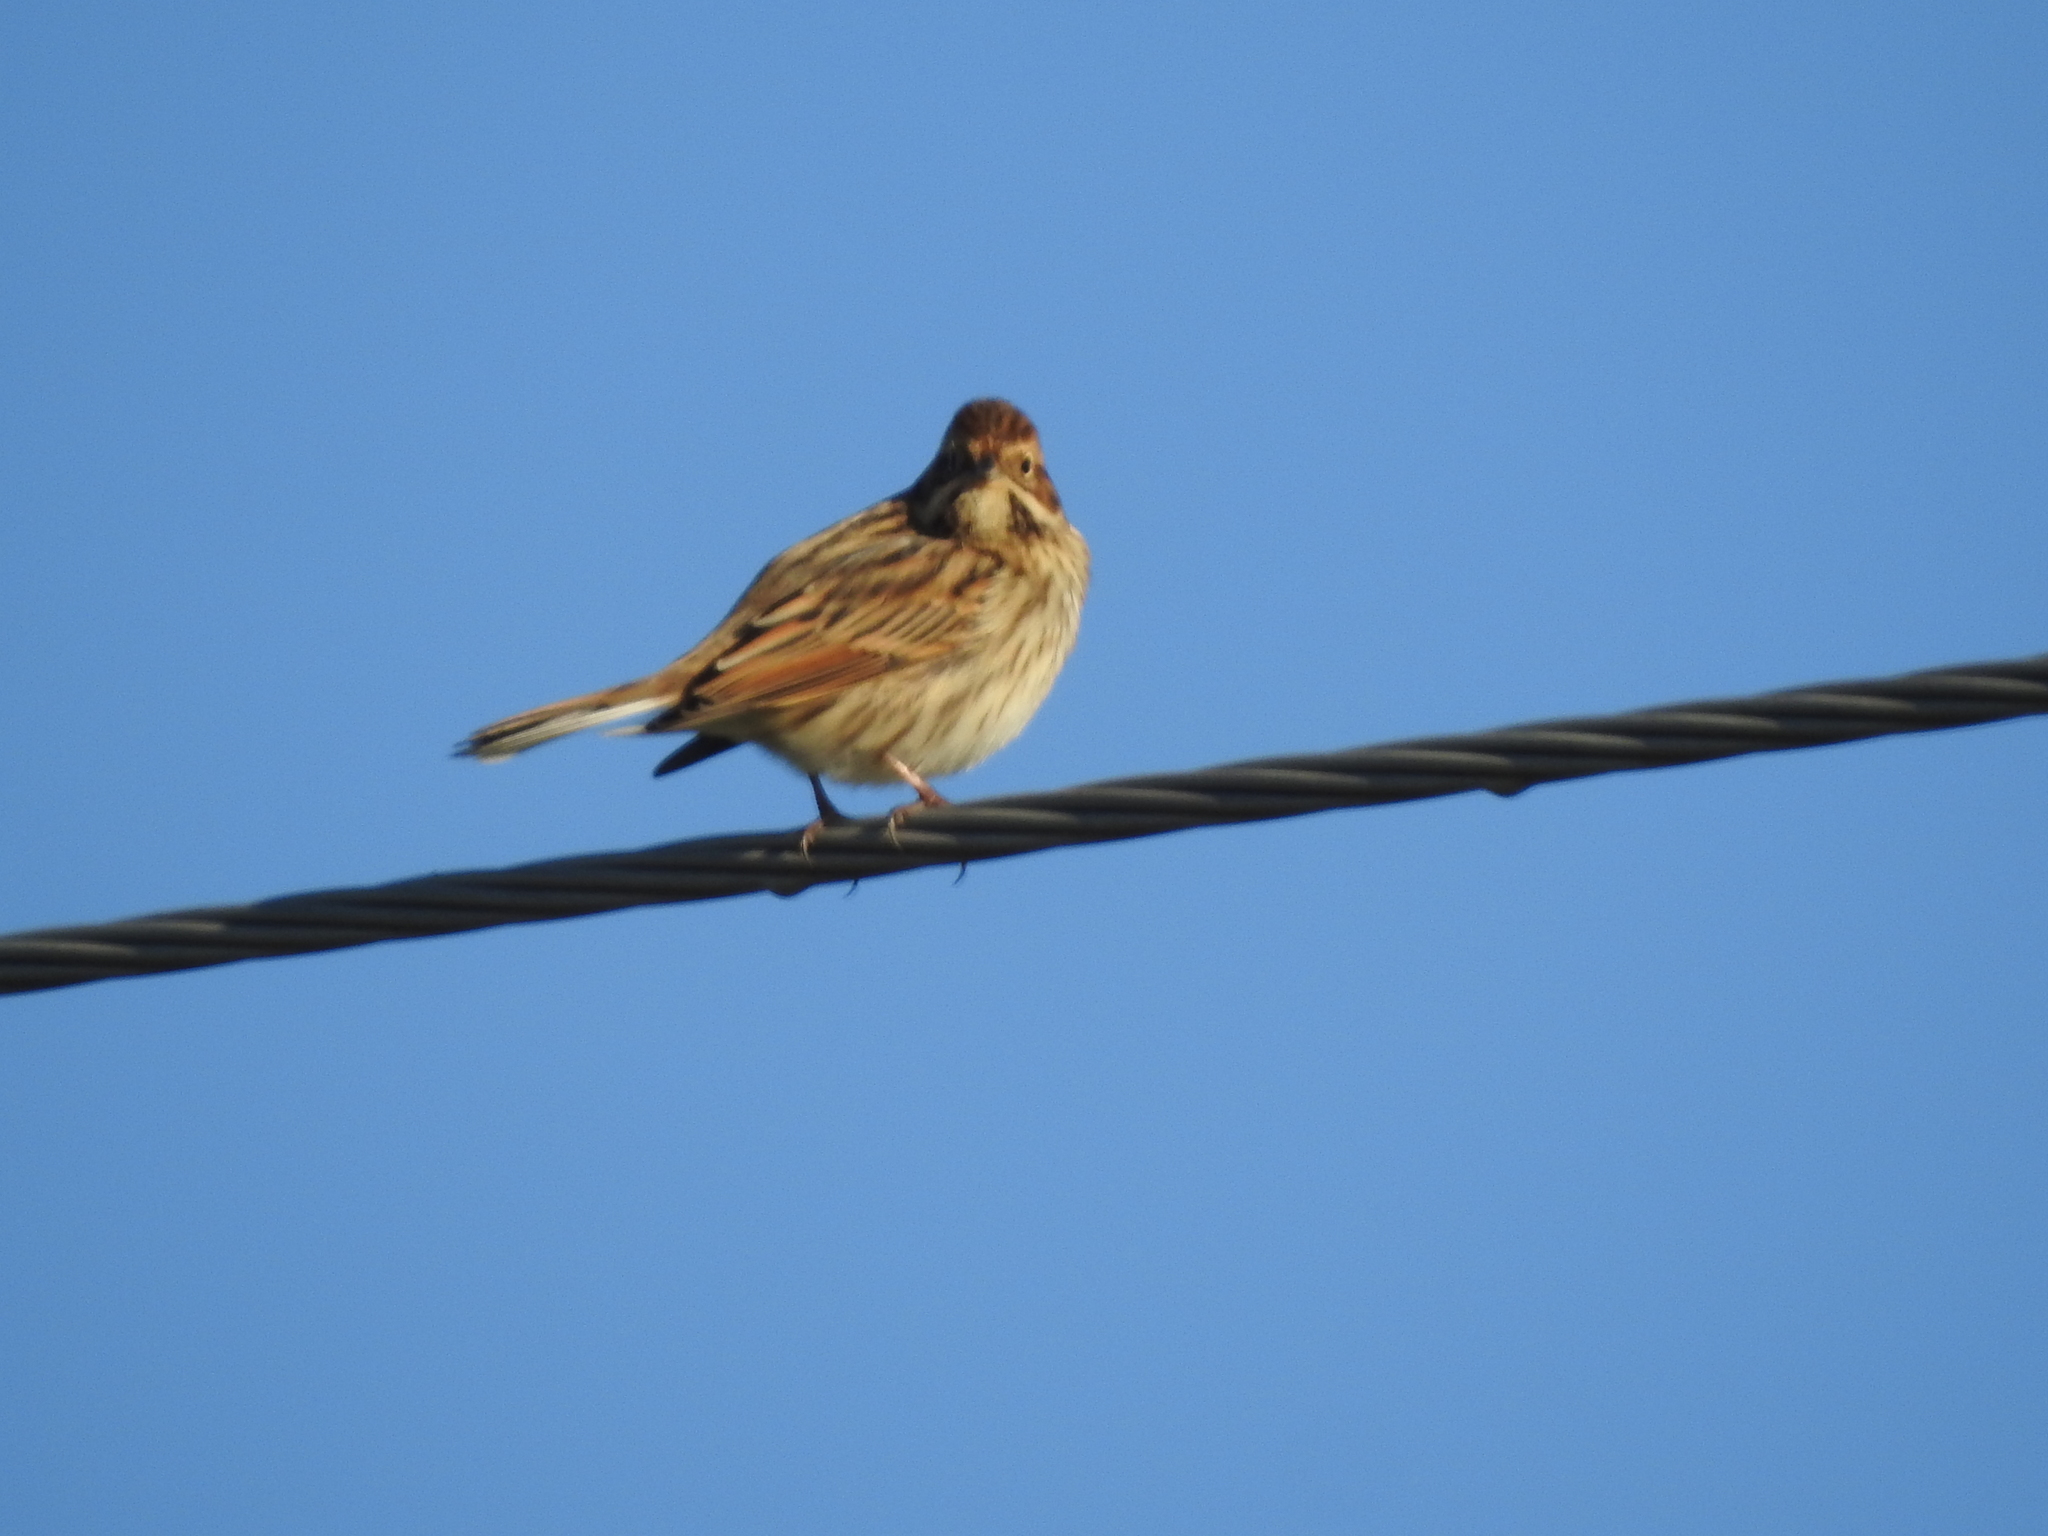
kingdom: Animalia
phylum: Chordata
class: Aves
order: Passeriformes
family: Emberizidae
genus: Emberiza
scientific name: Emberiza schoeniclus
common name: Reed bunting
